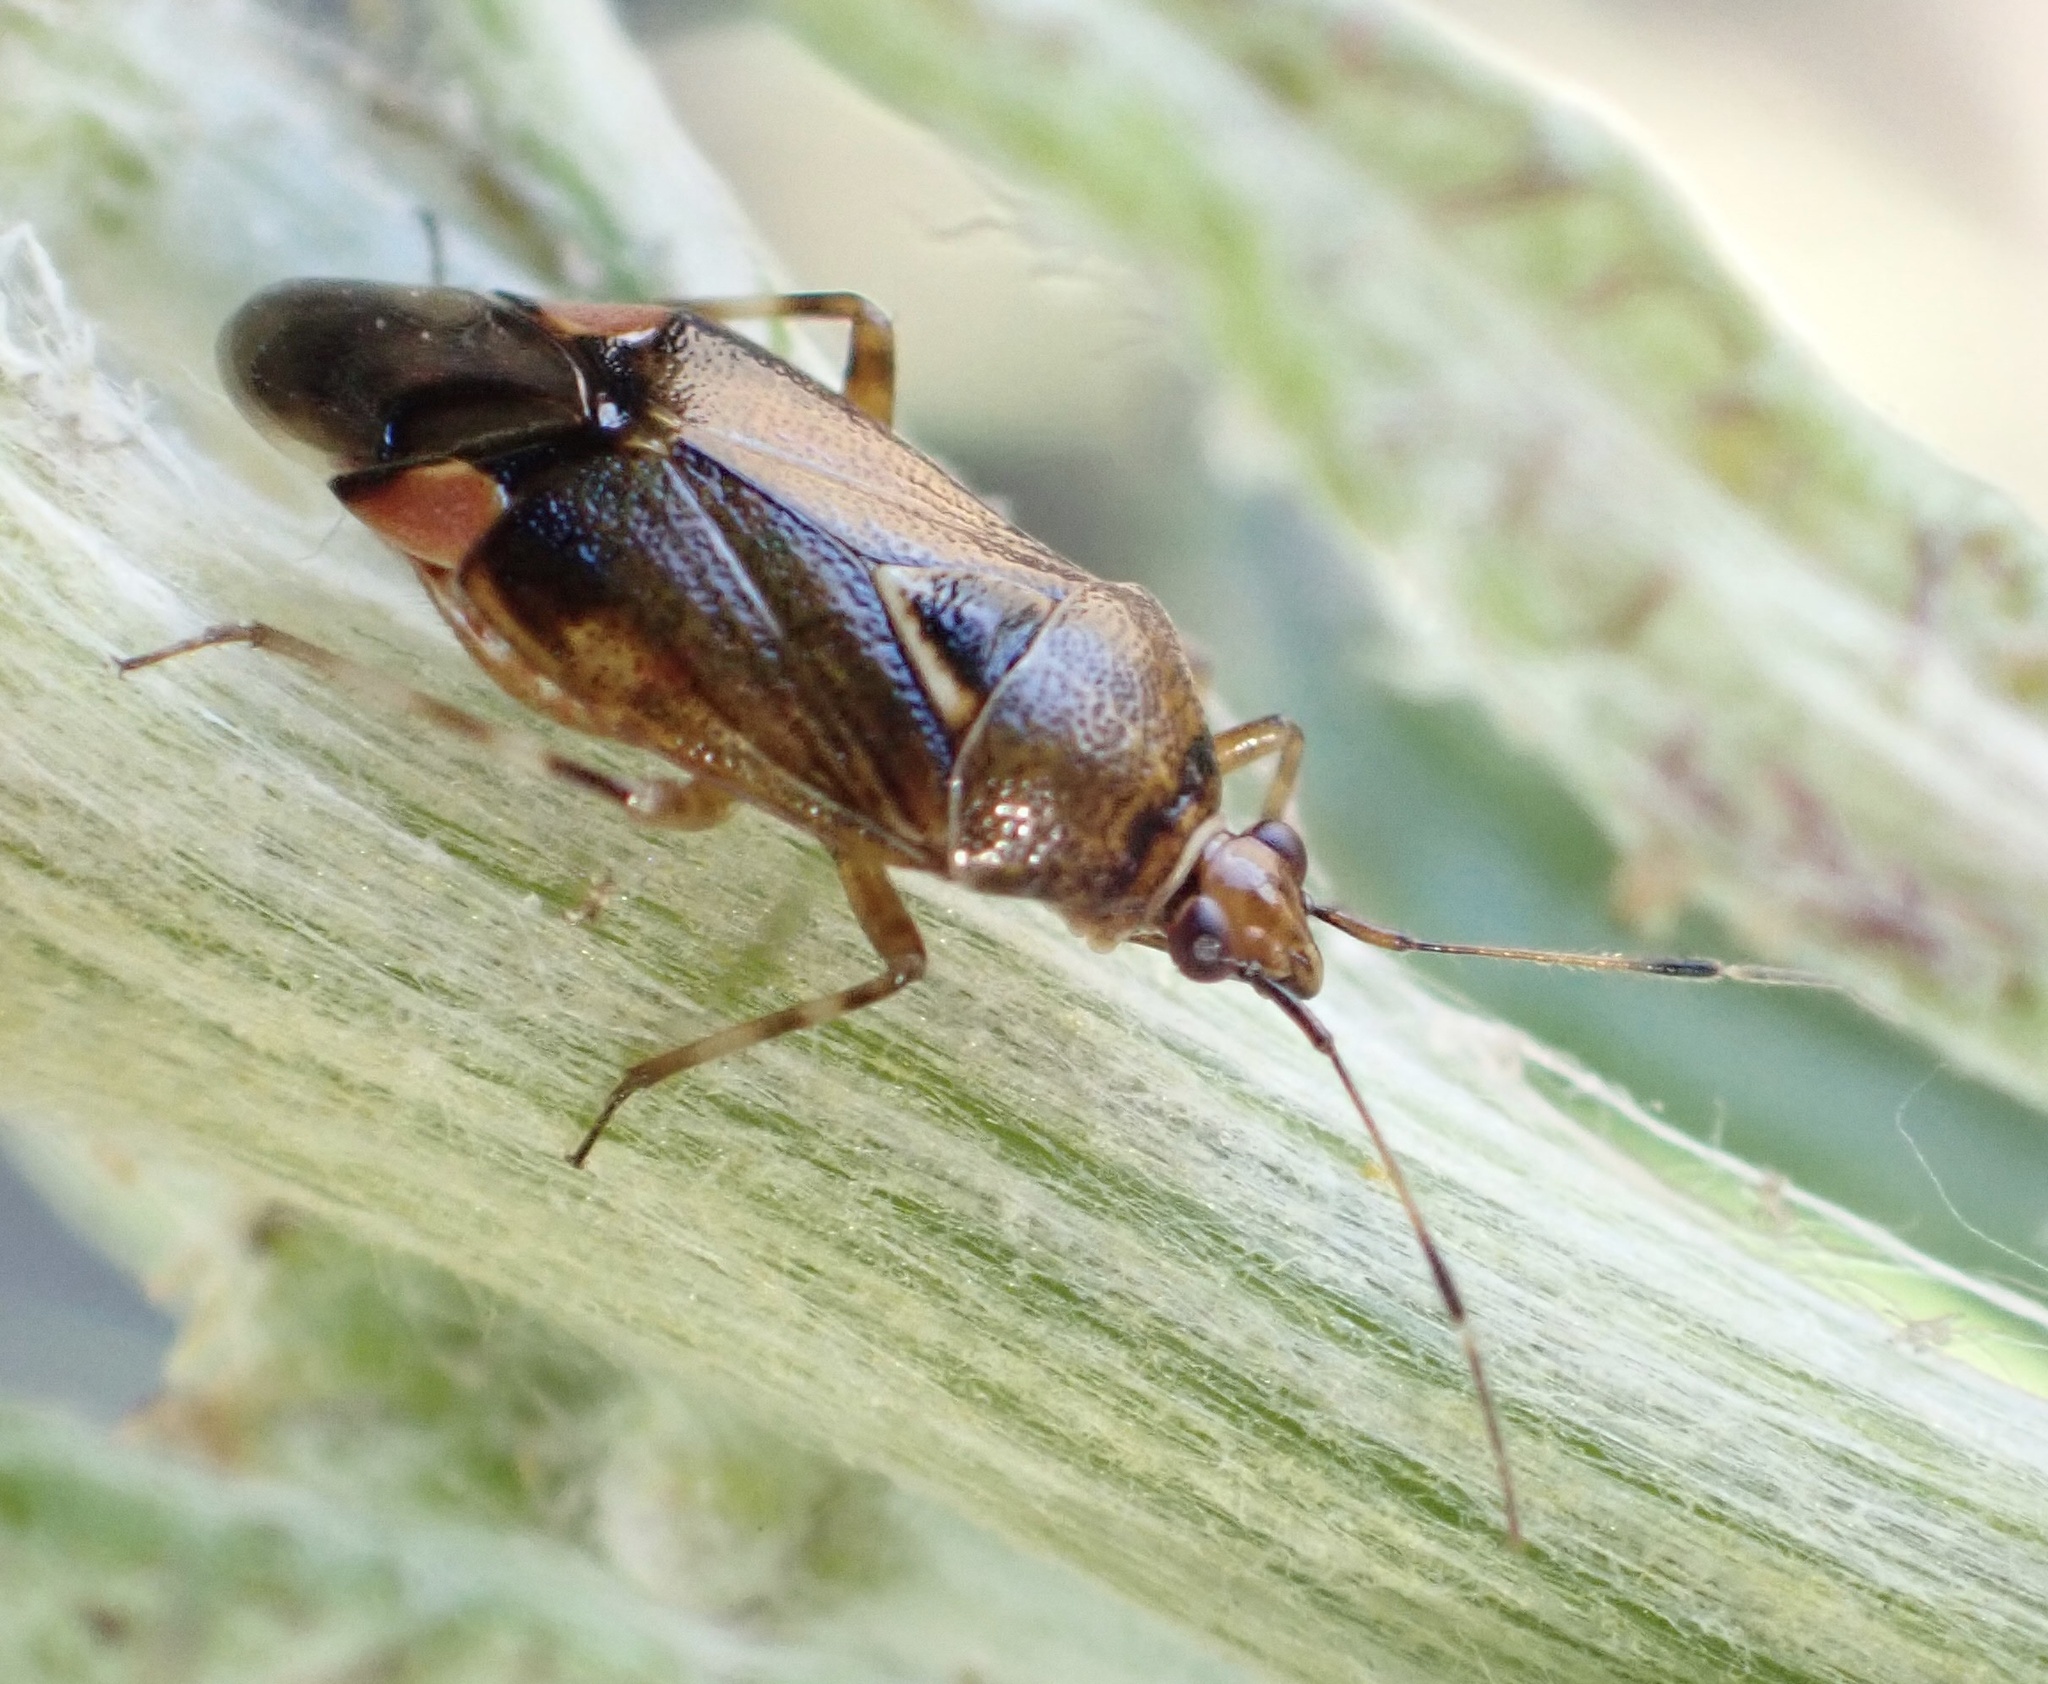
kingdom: Animalia
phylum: Arthropoda
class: Insecta
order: Hemiptera
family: Miridae
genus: Deraeocoris
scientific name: Deraeocoris flavilinea
